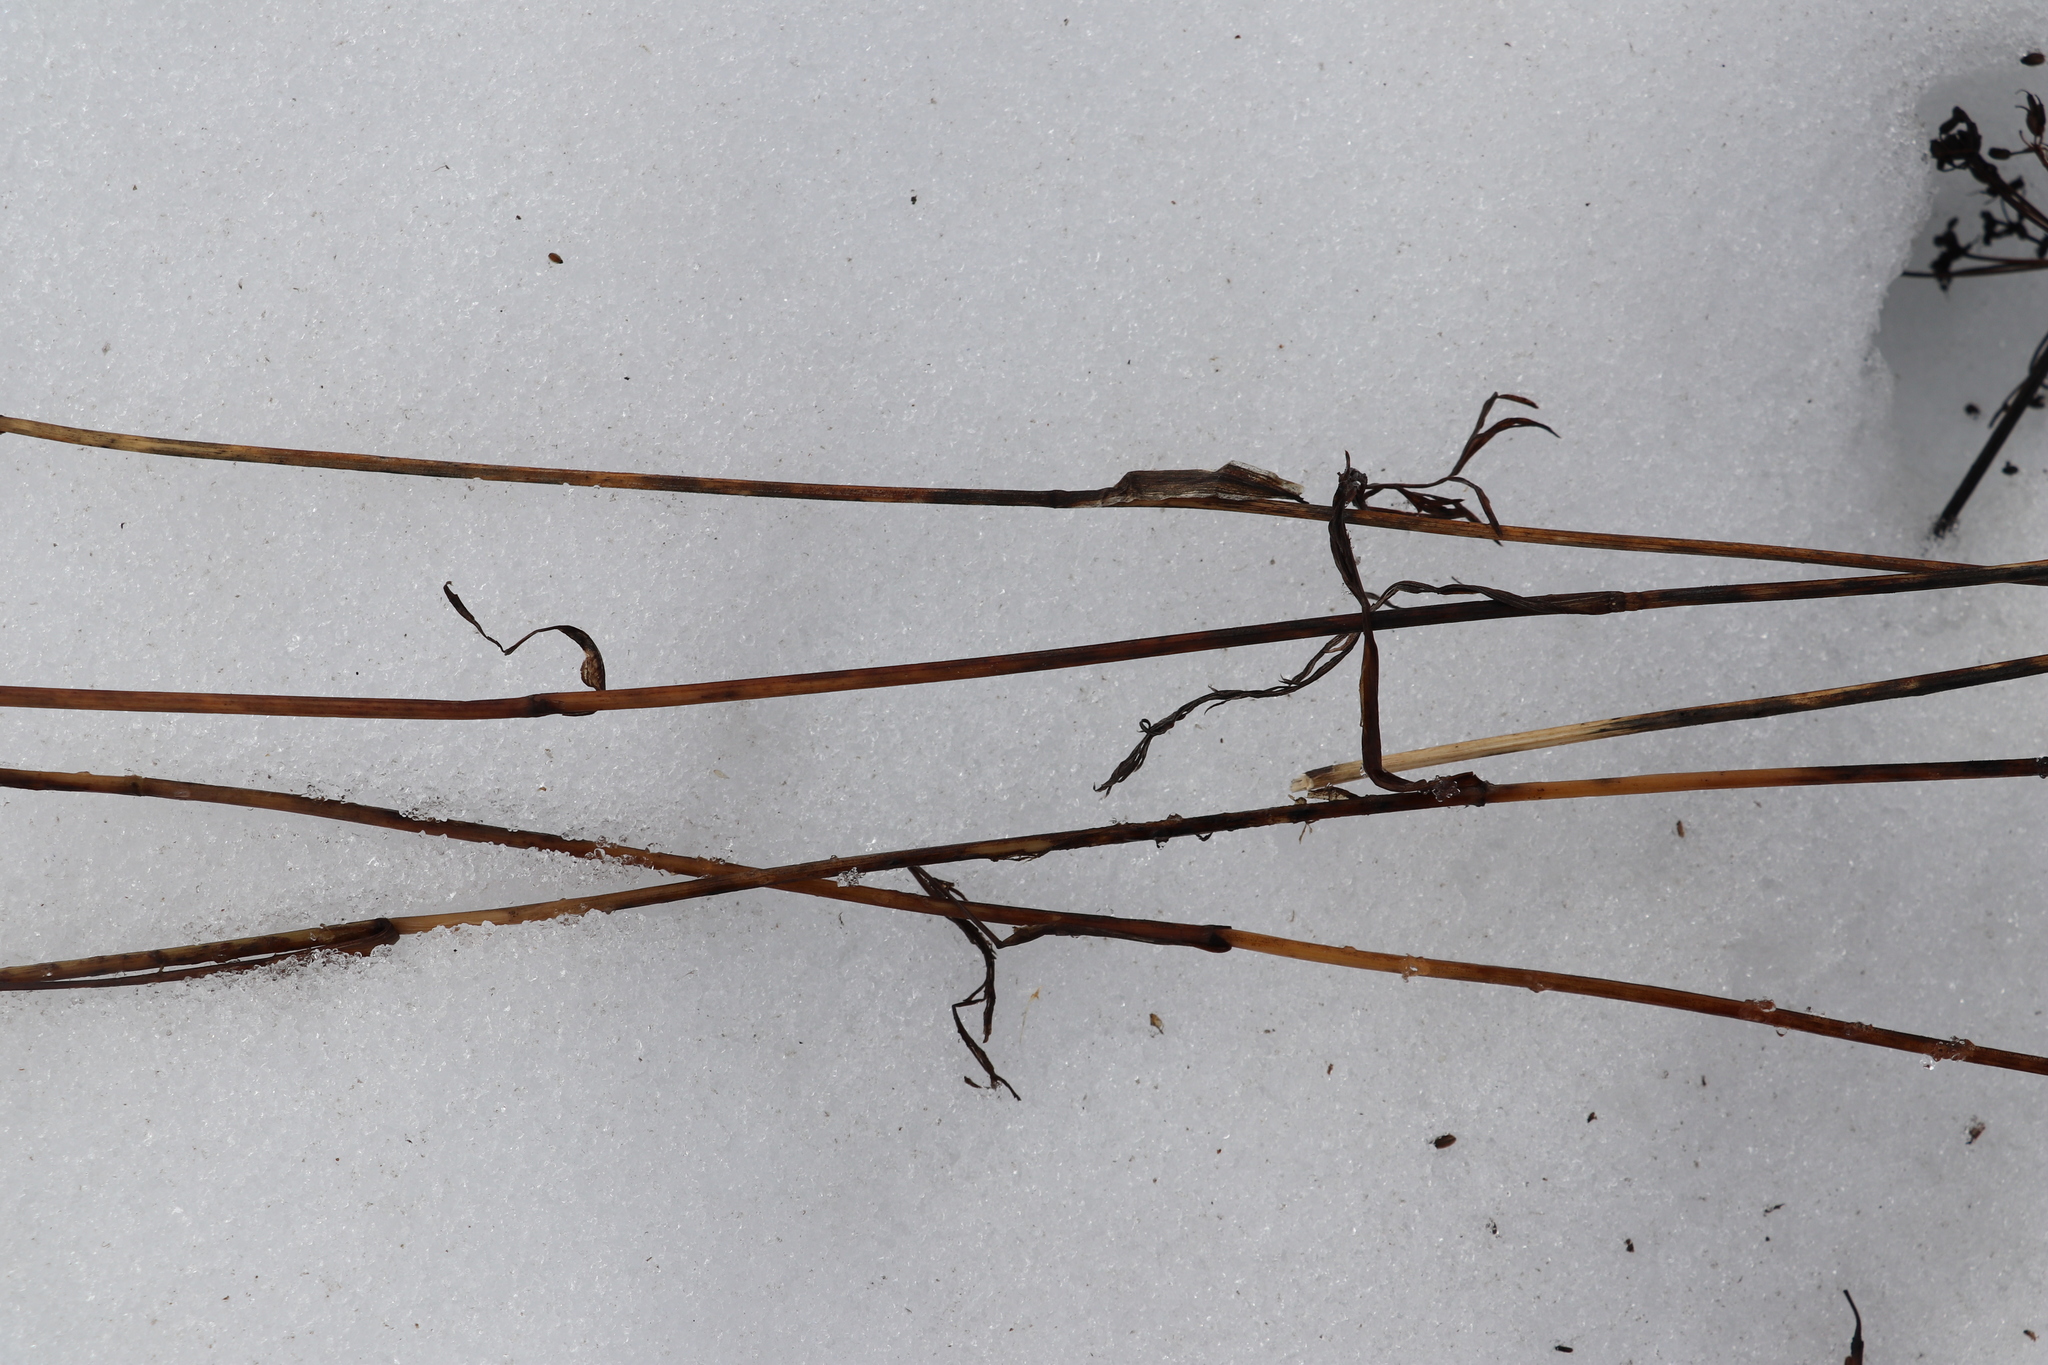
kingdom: Plantae
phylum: Tracheophyta
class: Magnoliopsida
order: Apiales
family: Apiaceae
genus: Cicuta
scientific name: Cicuta virosa
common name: Cowbane
